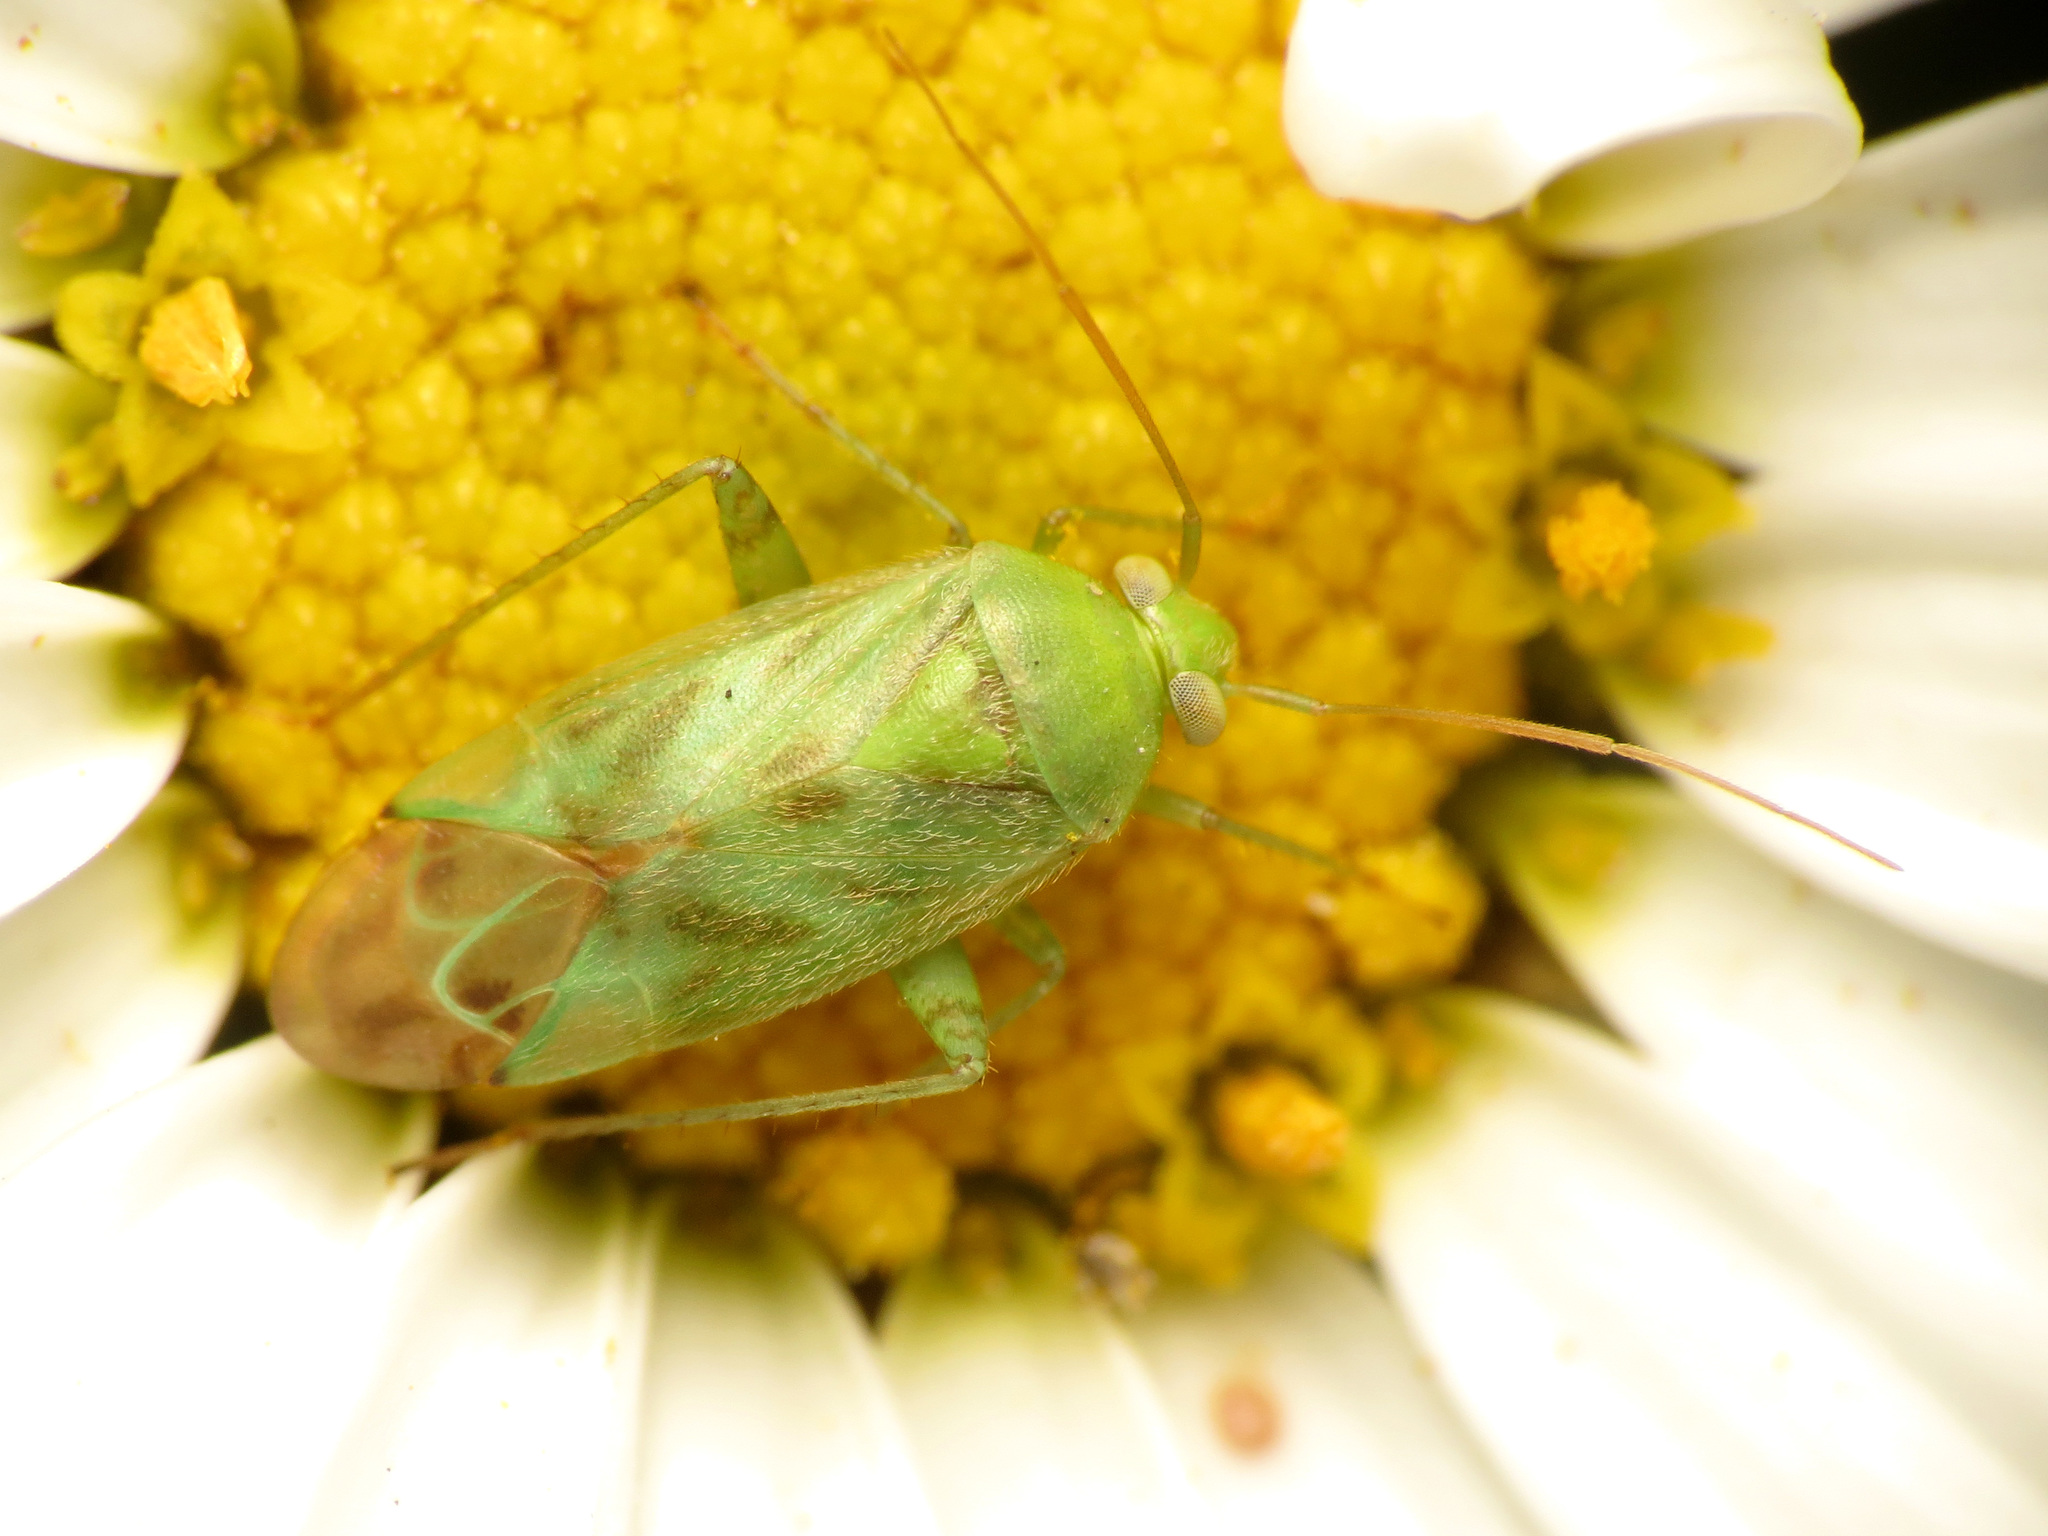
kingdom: Animalia
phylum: Arthropoda
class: Insecta
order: Hemiptera
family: Miridae
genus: Taylorilygus
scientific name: Taylorilygus apicalis
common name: Plant bug
